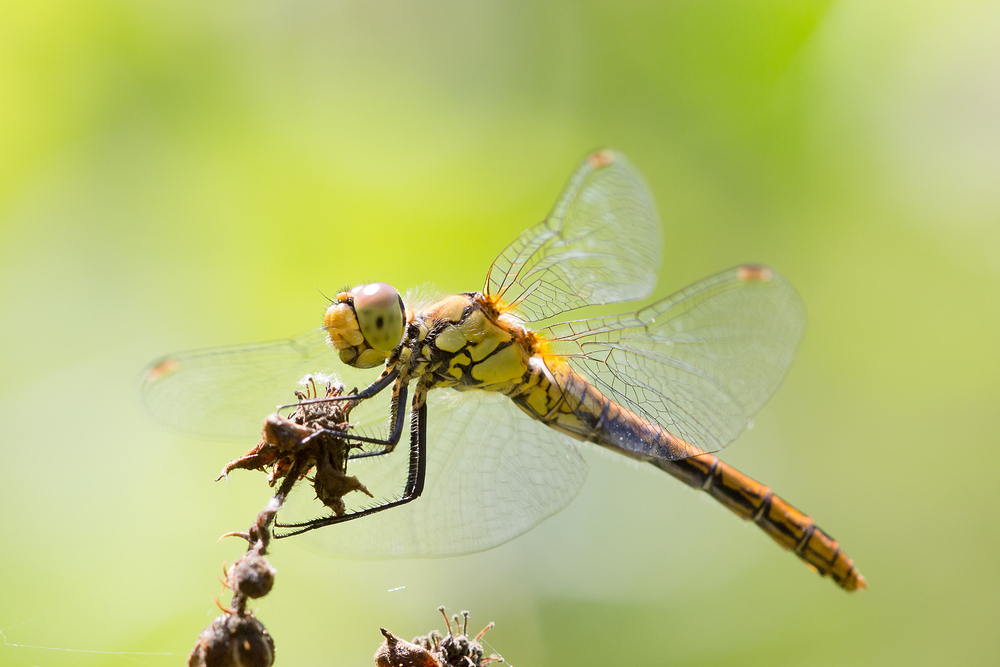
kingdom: Animalia
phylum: Arthropoda
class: Insecta
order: Odonata
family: Libellulidae
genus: Sympetrum
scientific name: Sympetrum sanguineum
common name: Ruddy darter
